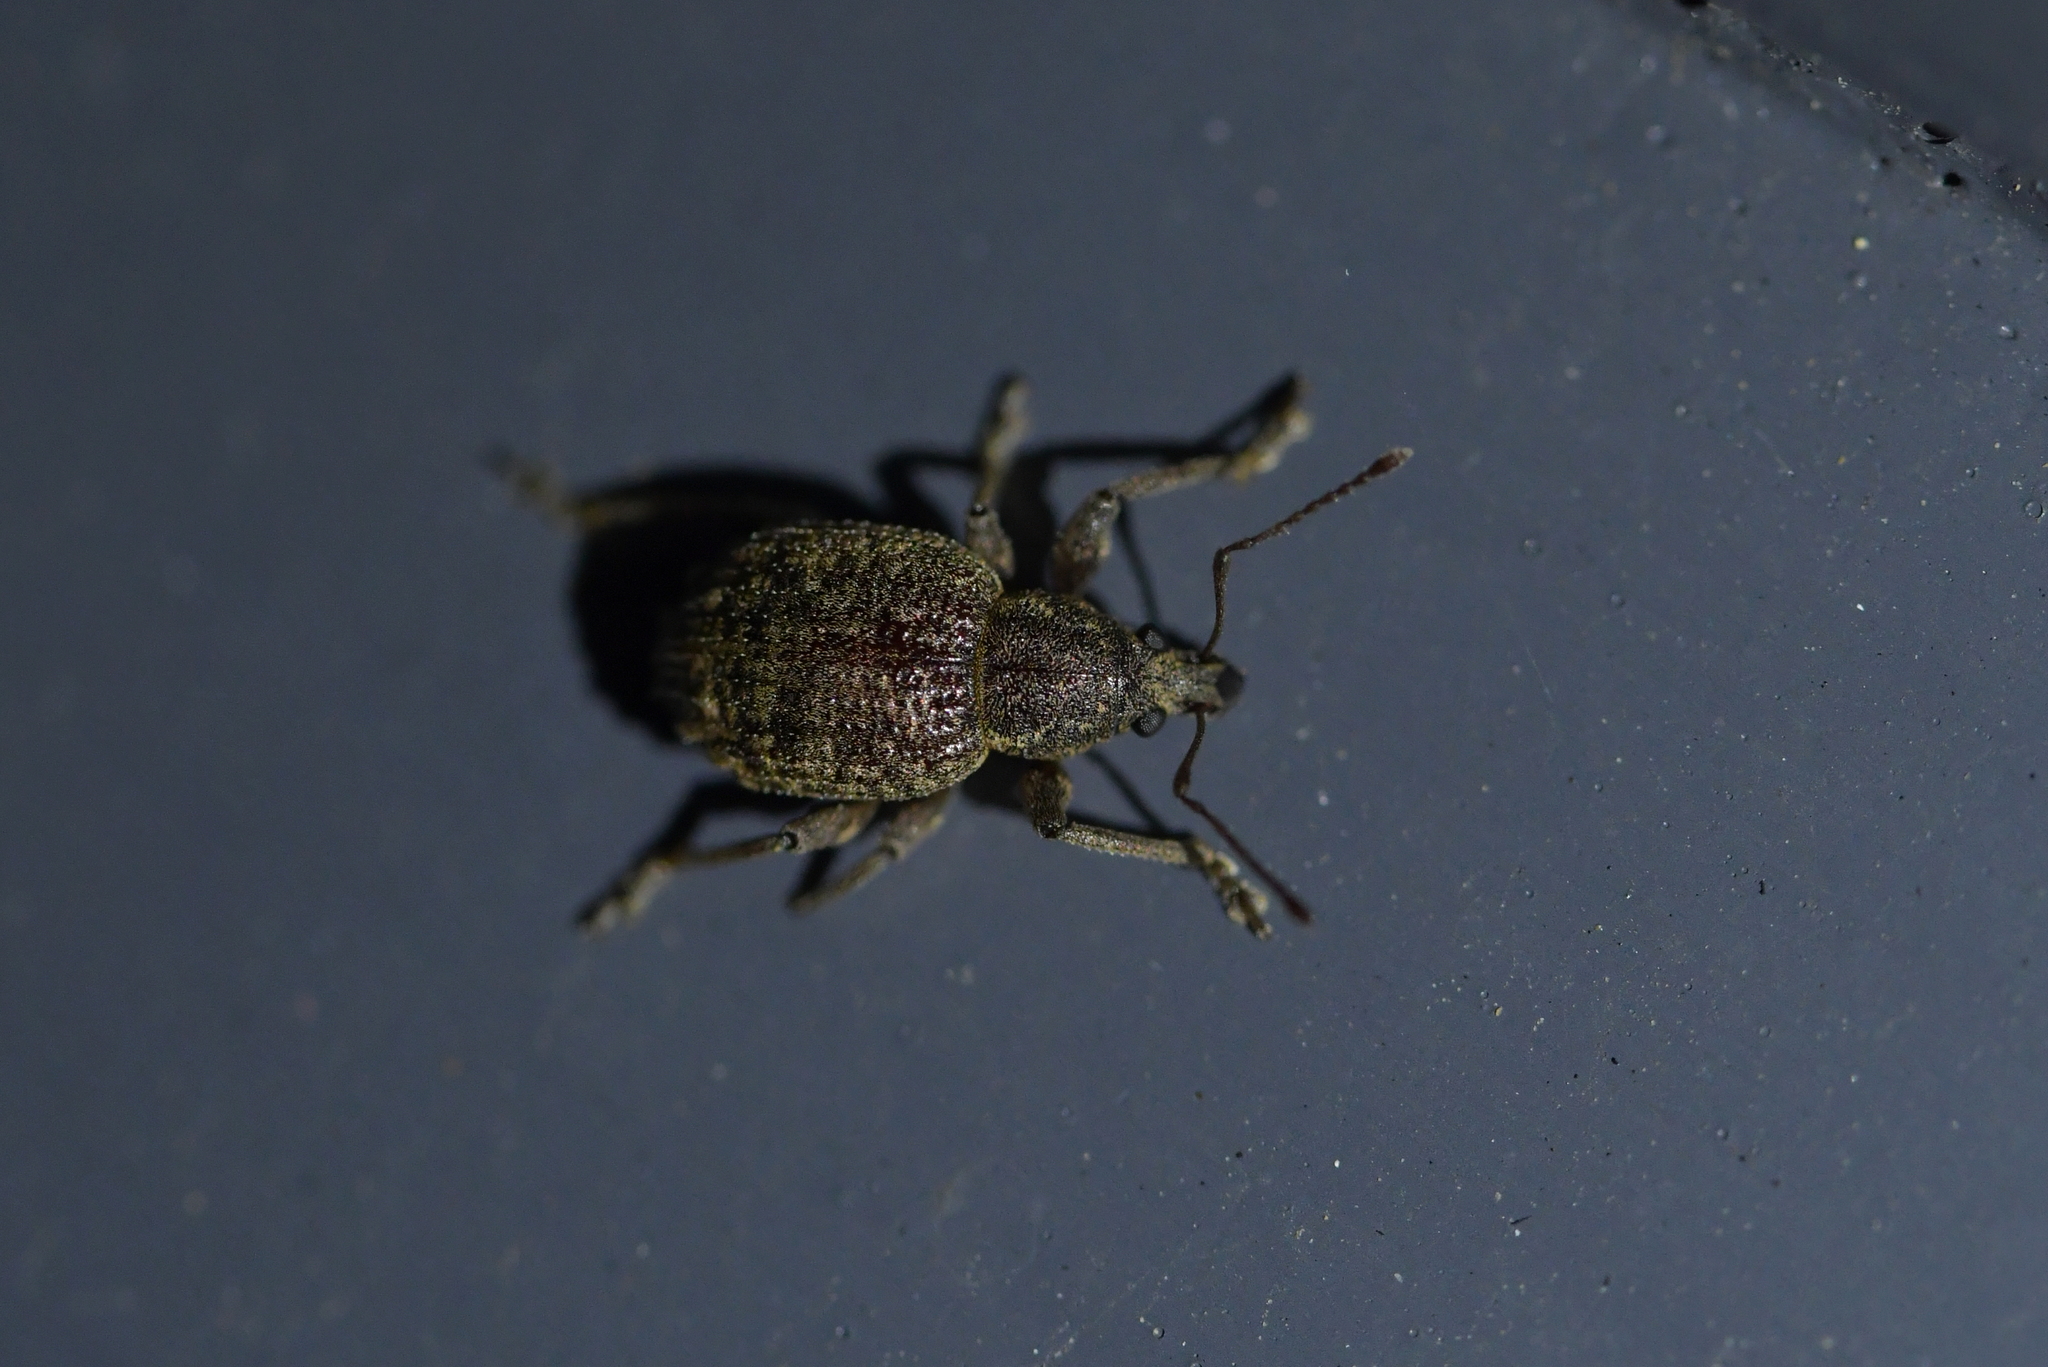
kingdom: Animalia
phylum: Arthropoda
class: Insecta
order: Coleoptera
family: Curculionidae
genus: Phlyctinus
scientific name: Phlyctinus callosus
